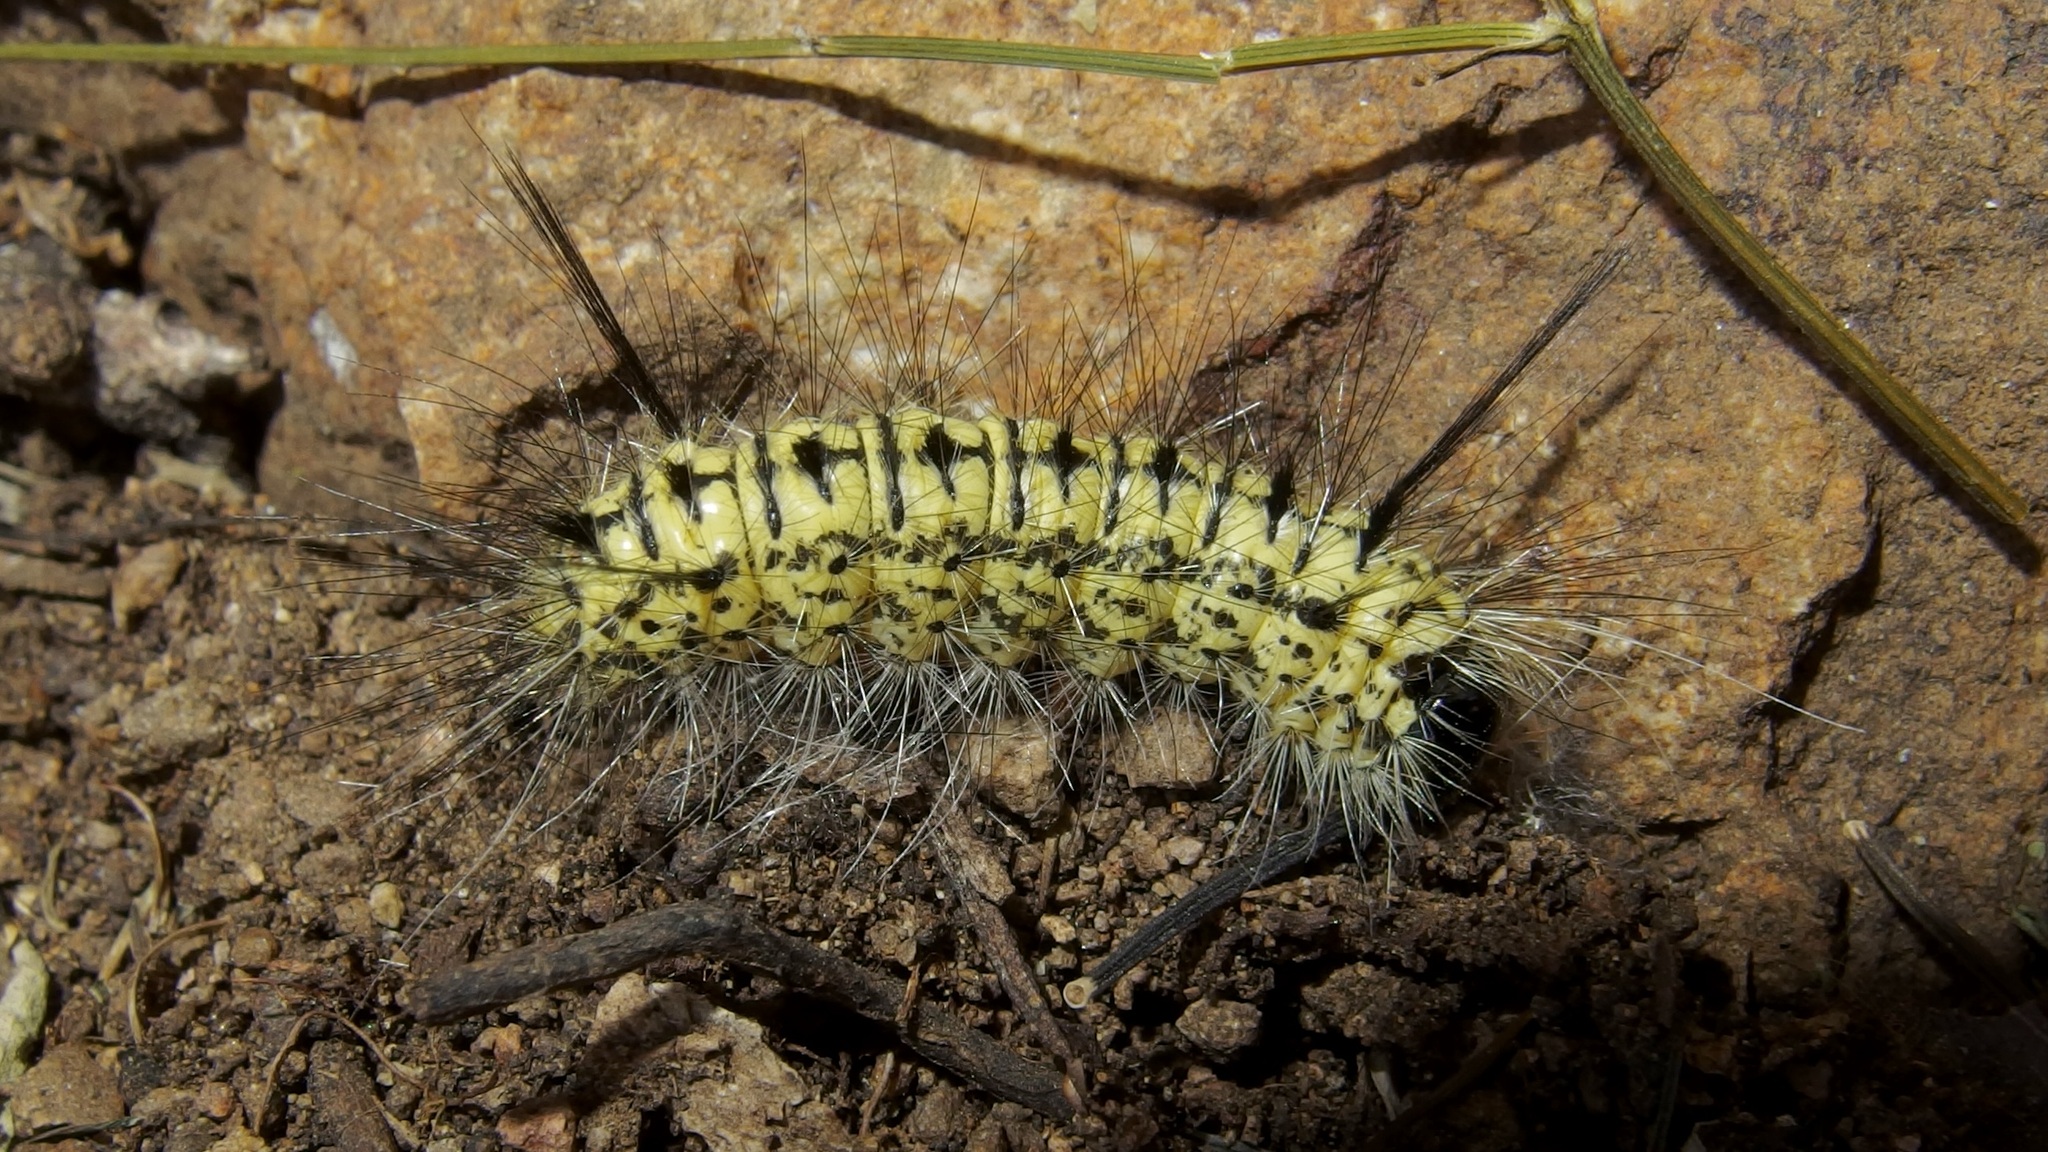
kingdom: Animalia
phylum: Arthropoda
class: Insecta
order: Lepidoptera
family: Erebidae
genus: Lophocampa
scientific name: Lophocampa mixta
